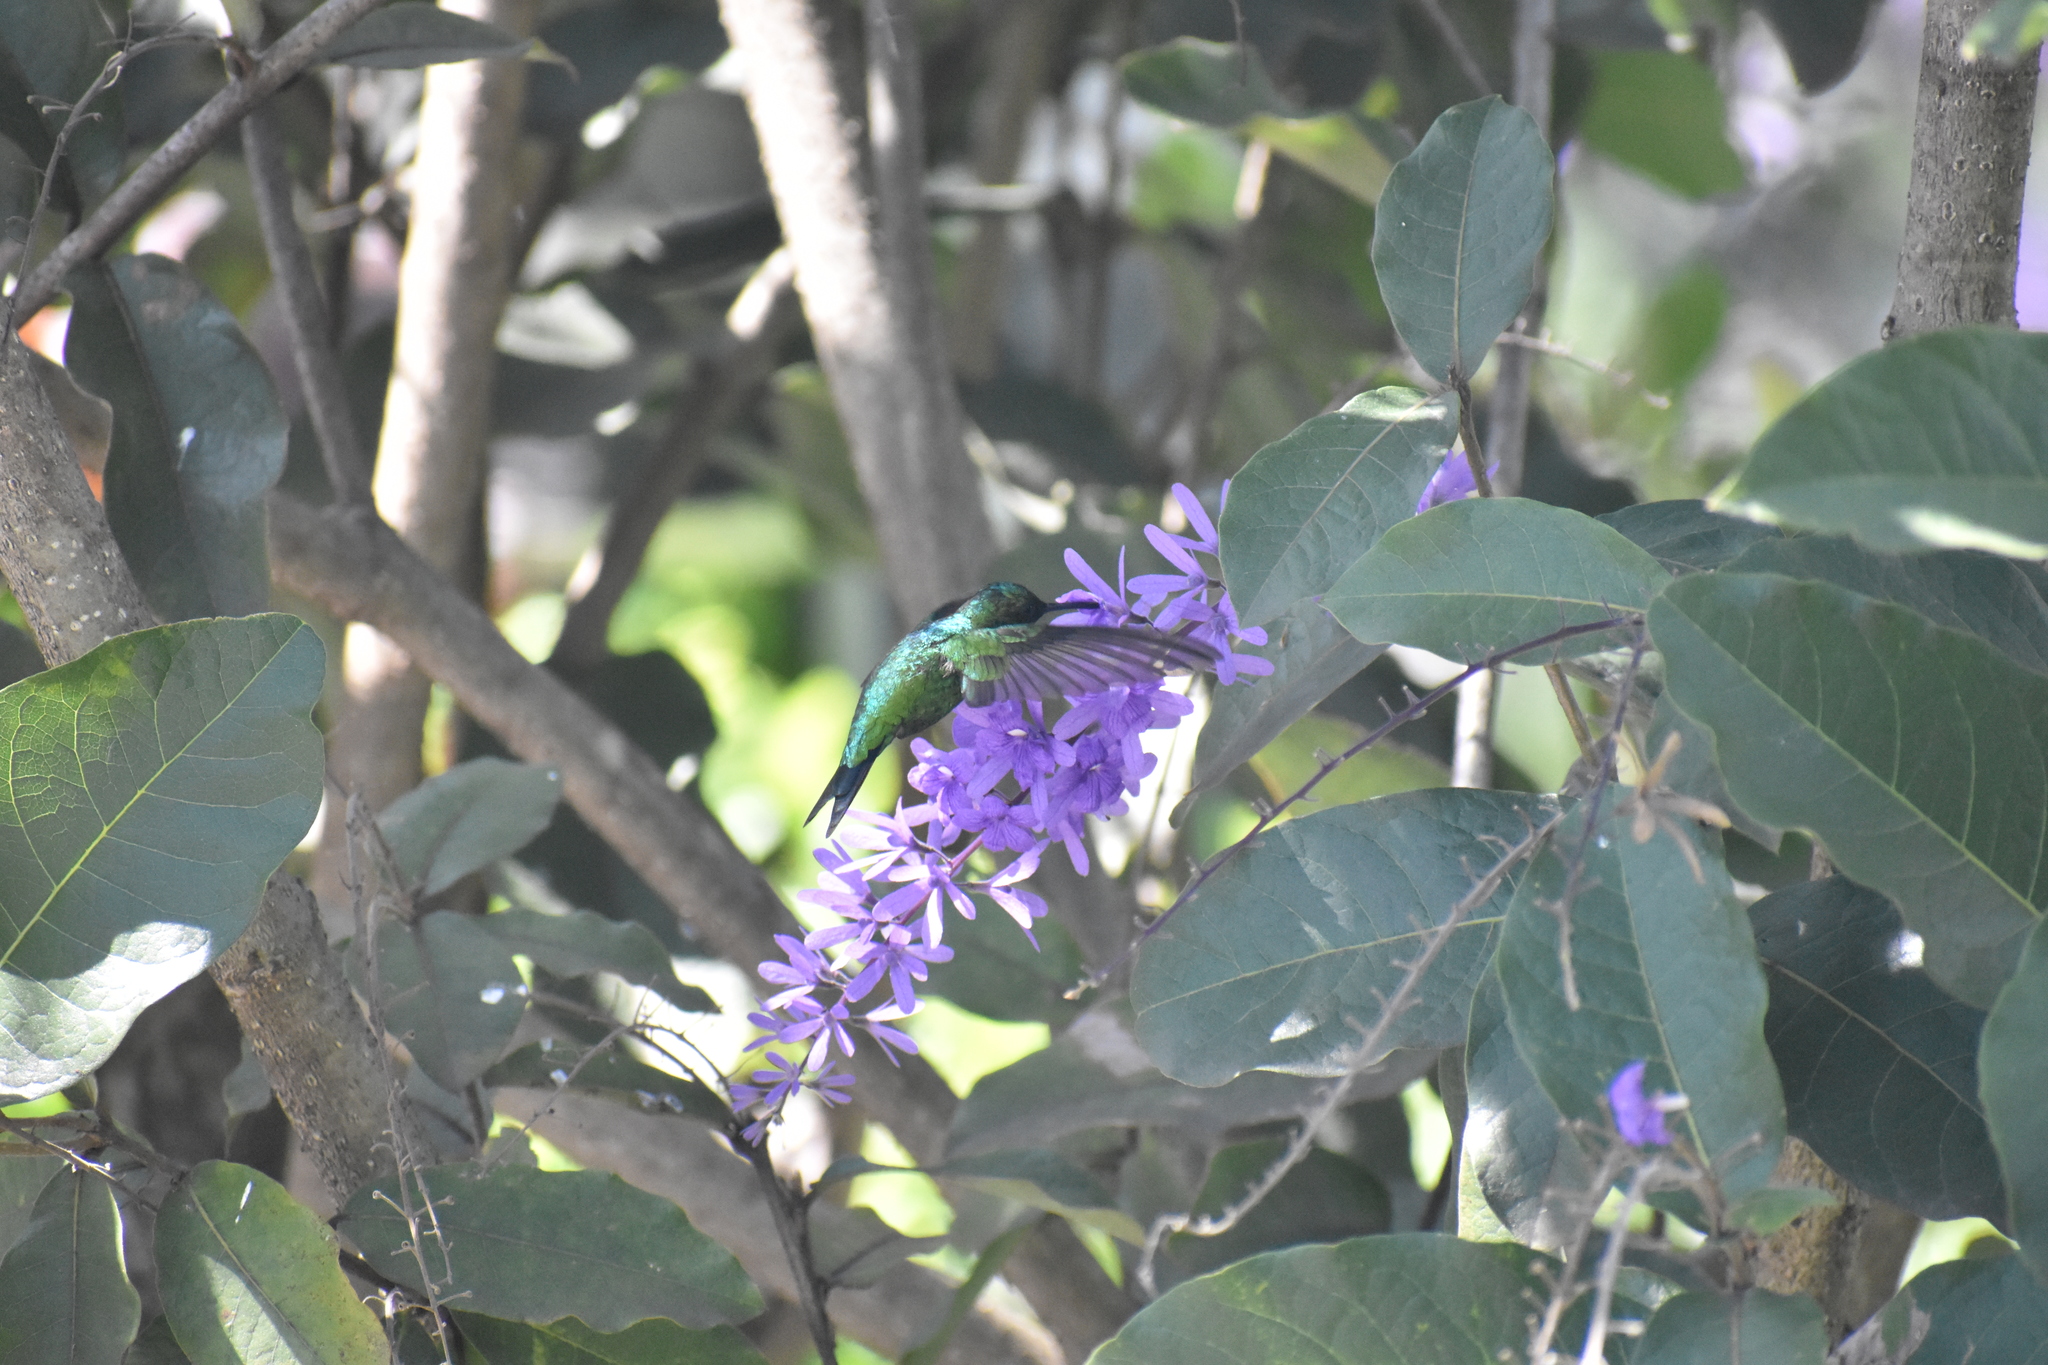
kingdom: Animalia
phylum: Chordata
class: Aves
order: Apodiformes
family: Trochilidae
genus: Saucerottia
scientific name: Saucerottia saucerottei
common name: Steely-vented hummingbird
